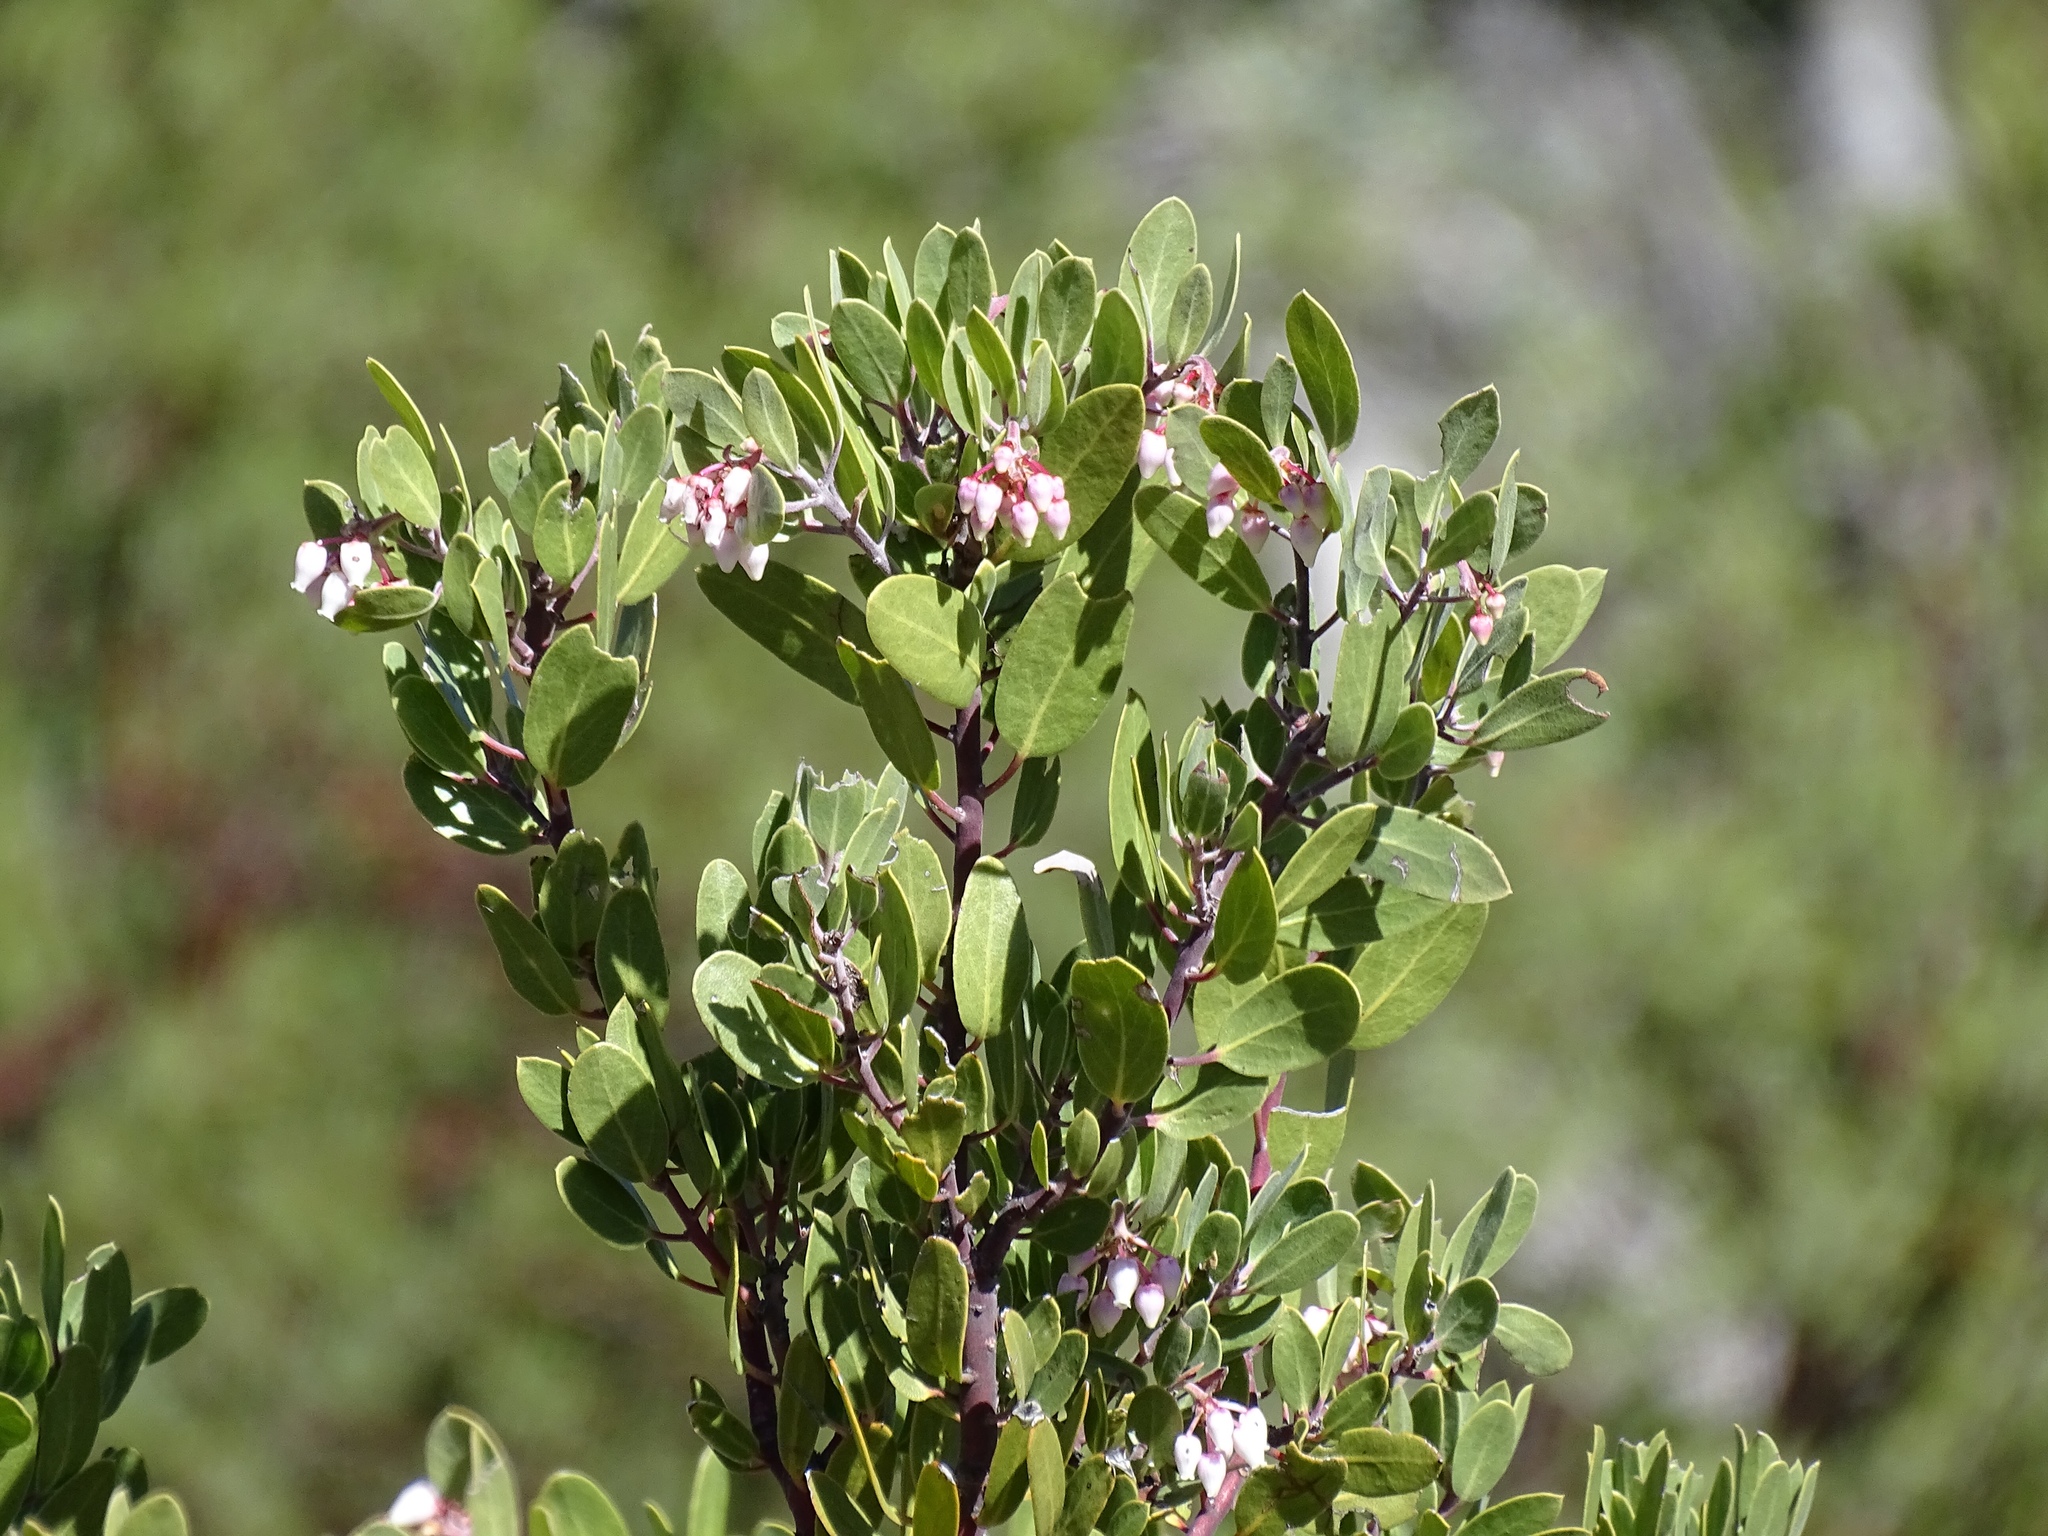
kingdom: Plantae
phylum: Tracheophyta
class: Magnoliopsida
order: Ericales
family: Ericaceae
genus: Arctostaphylos
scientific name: Arctostaphylos pungens
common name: Mexican manzanita
